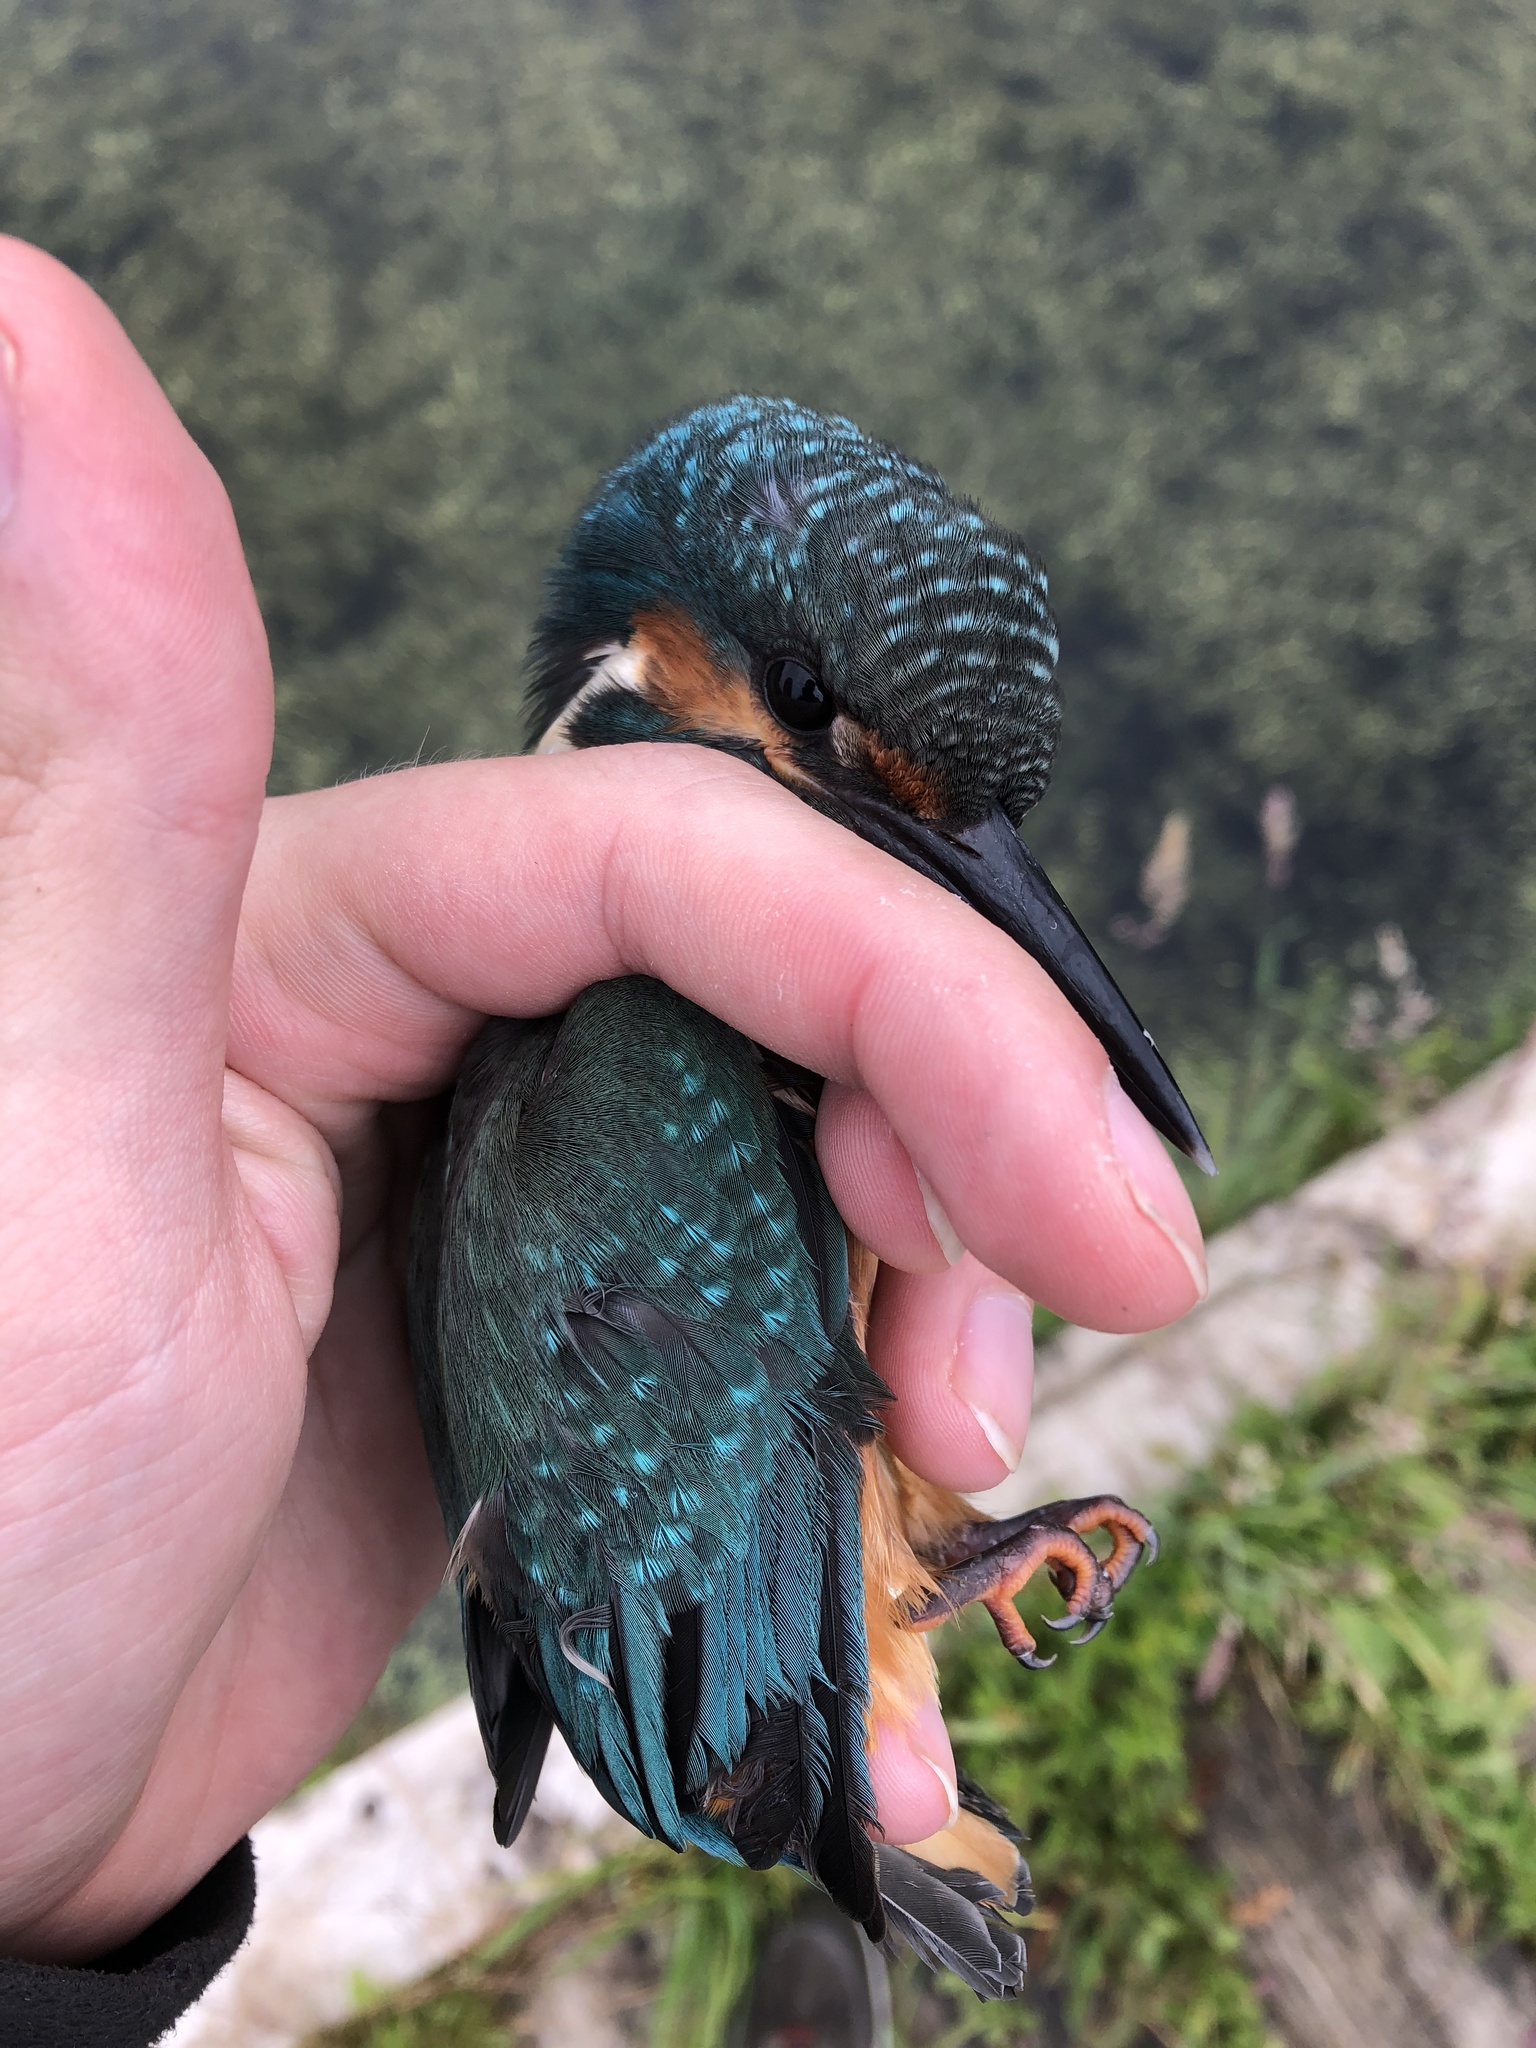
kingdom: Animalia
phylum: Chordata
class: Aves
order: Coraciiformes
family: Alcedinidae
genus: Alcedo
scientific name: Alcedo atthis
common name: Common kingfisher
